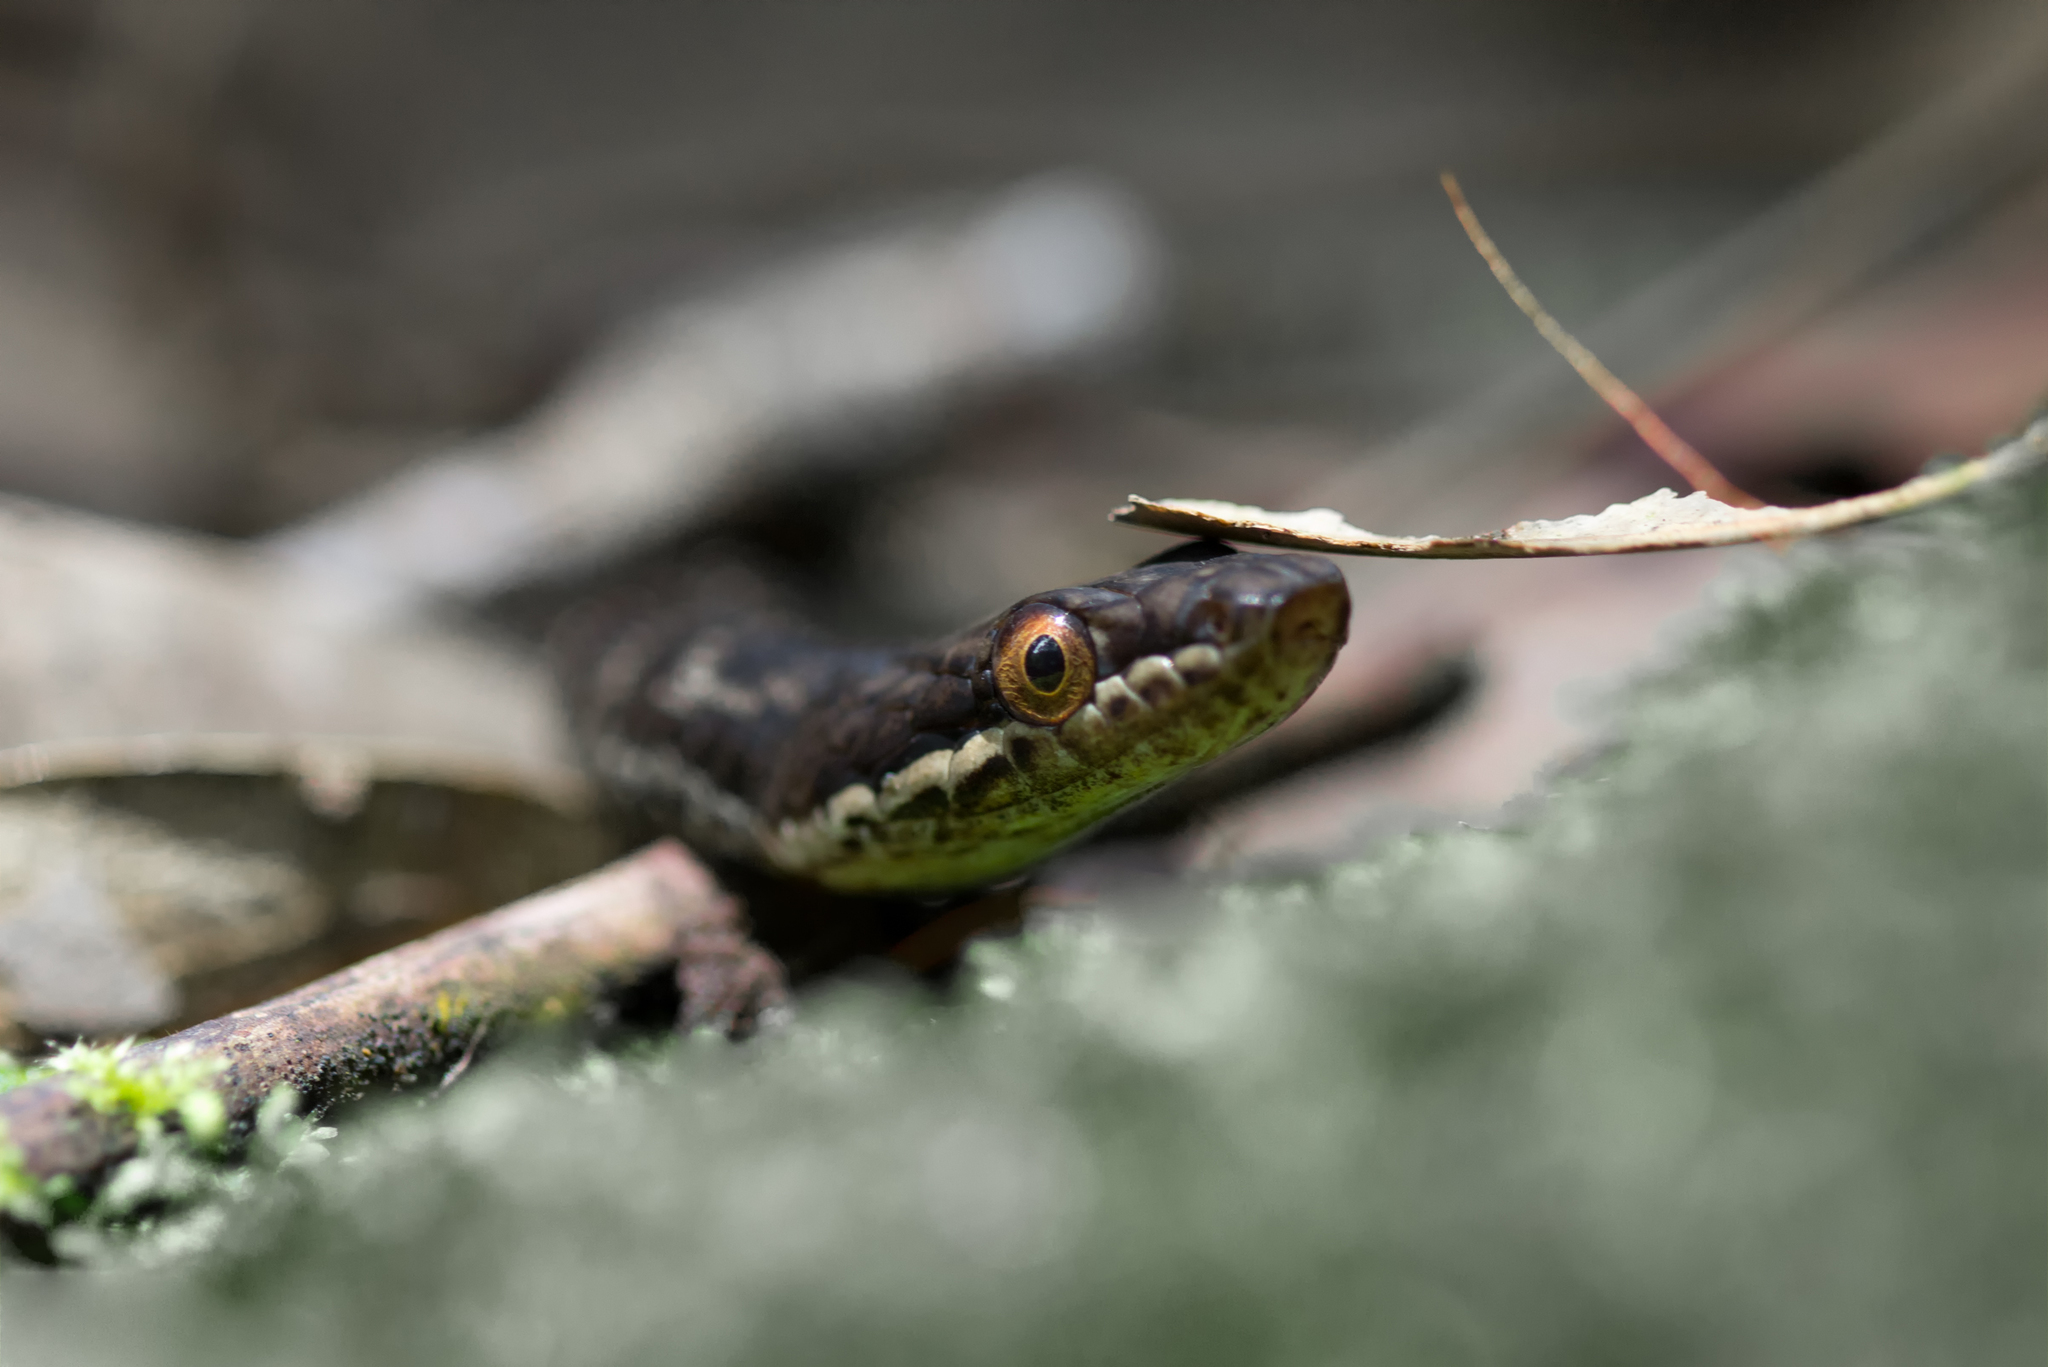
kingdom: Animalia
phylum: Chordata
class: Squamata
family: Colubridae
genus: Lycognathophis
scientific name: Lycognathophis seychellensis
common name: Seychelles wolf snake
